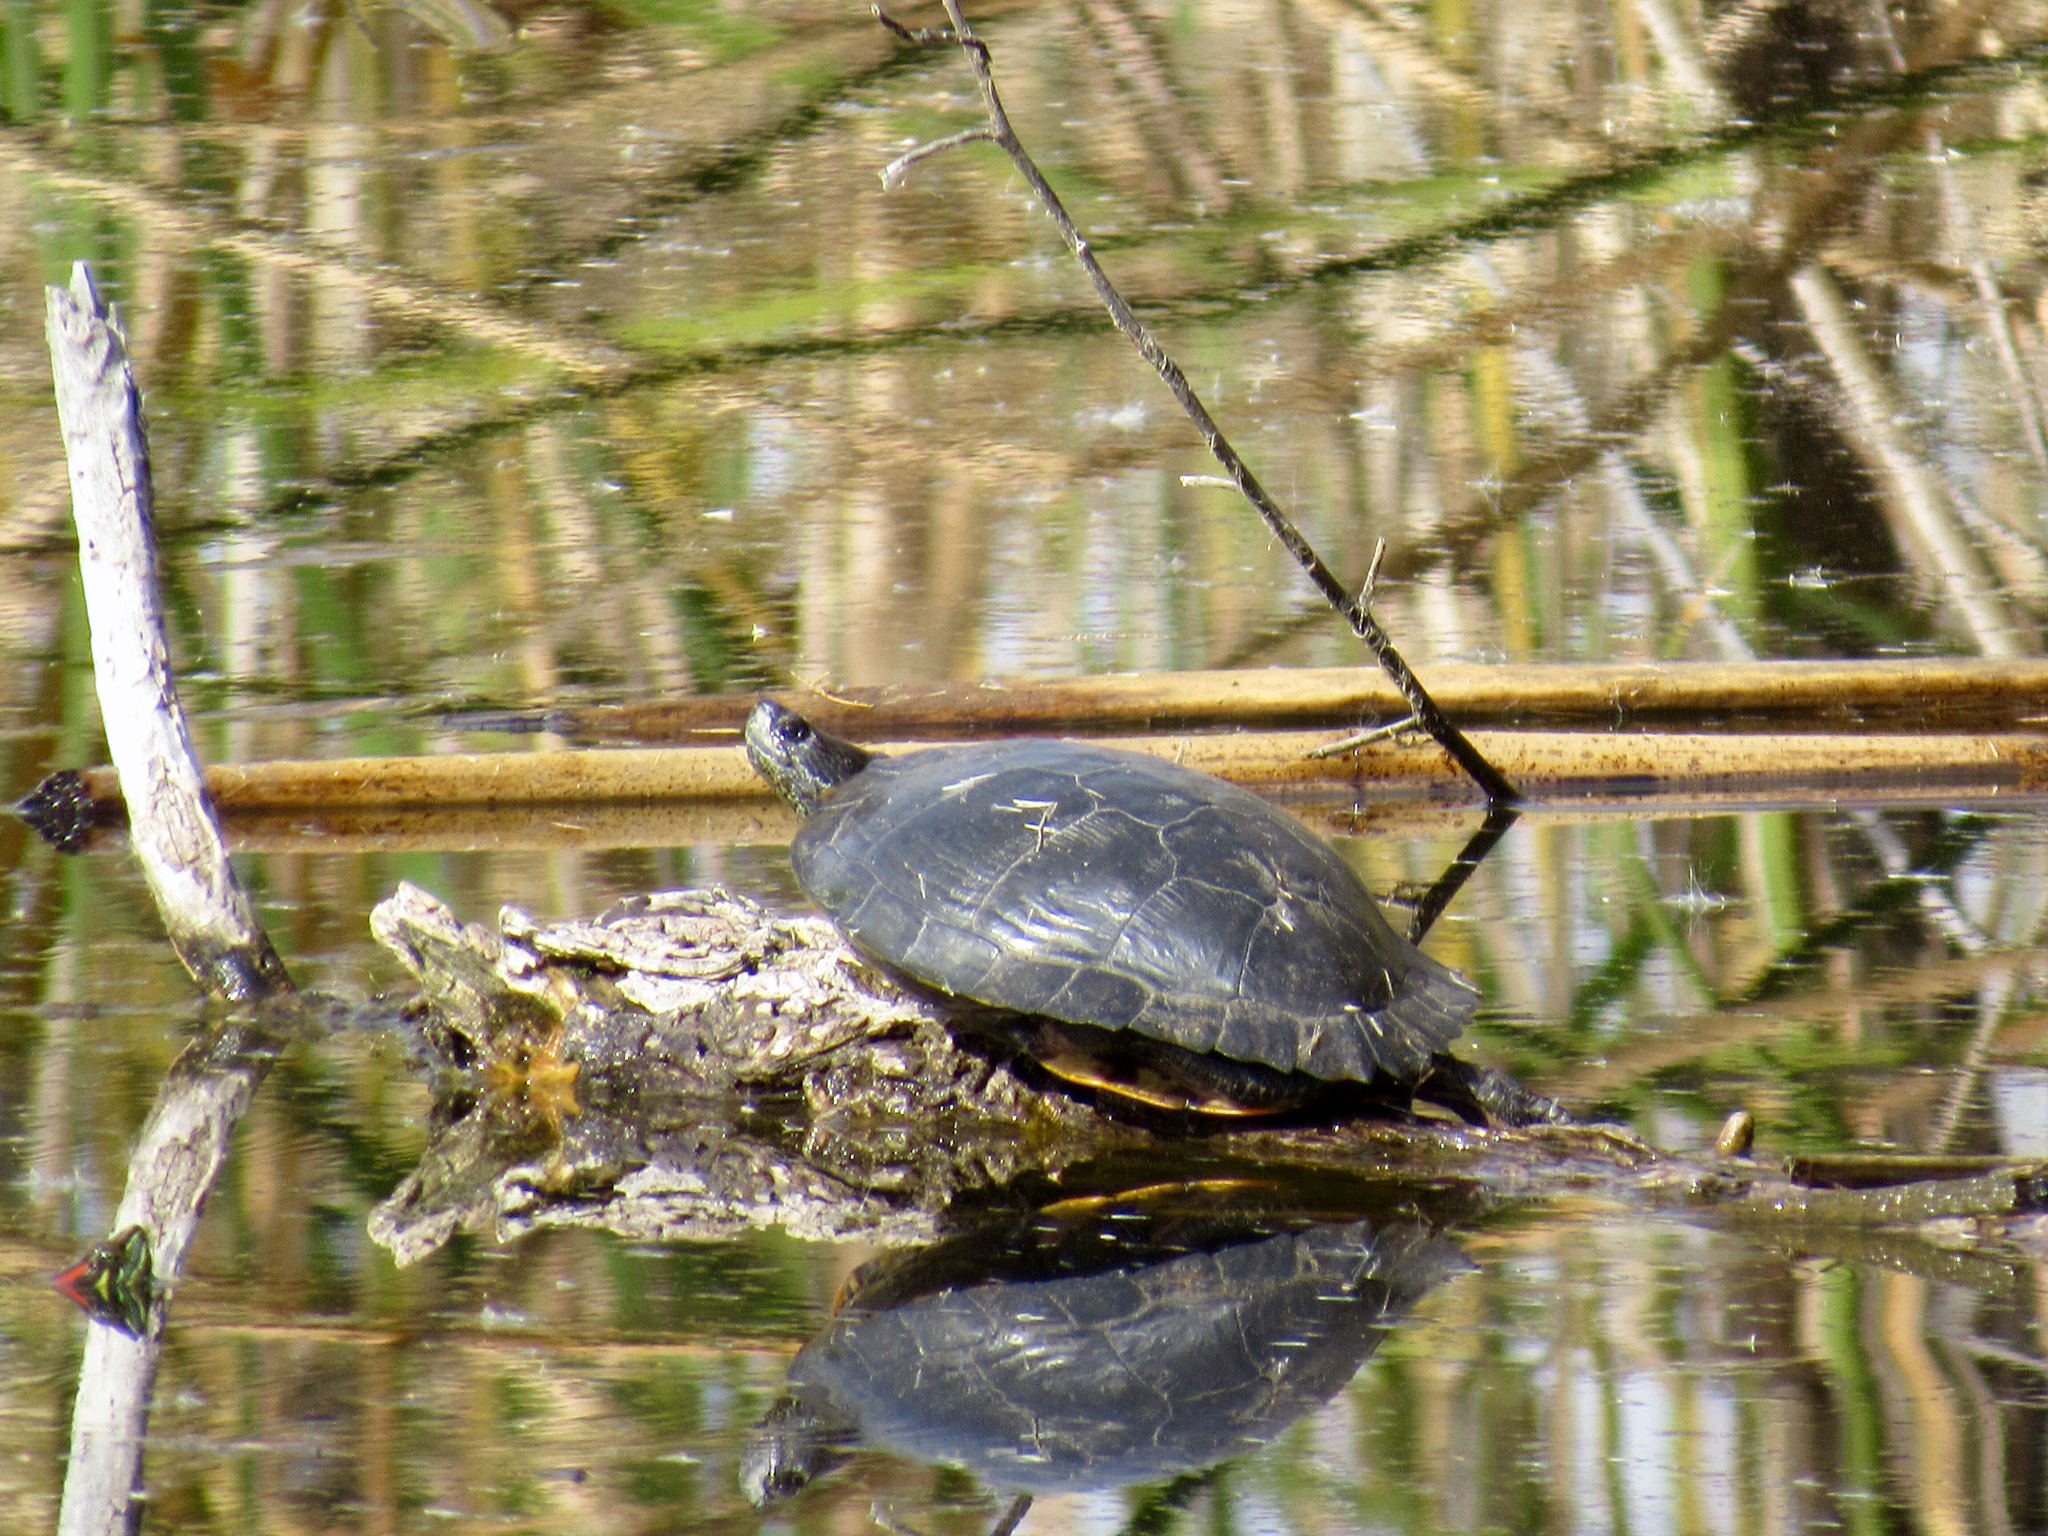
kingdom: Animalia
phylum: Chordata
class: Testudines
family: Emydidae
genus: Trachemys
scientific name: Trachemys scripta
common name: Slider
